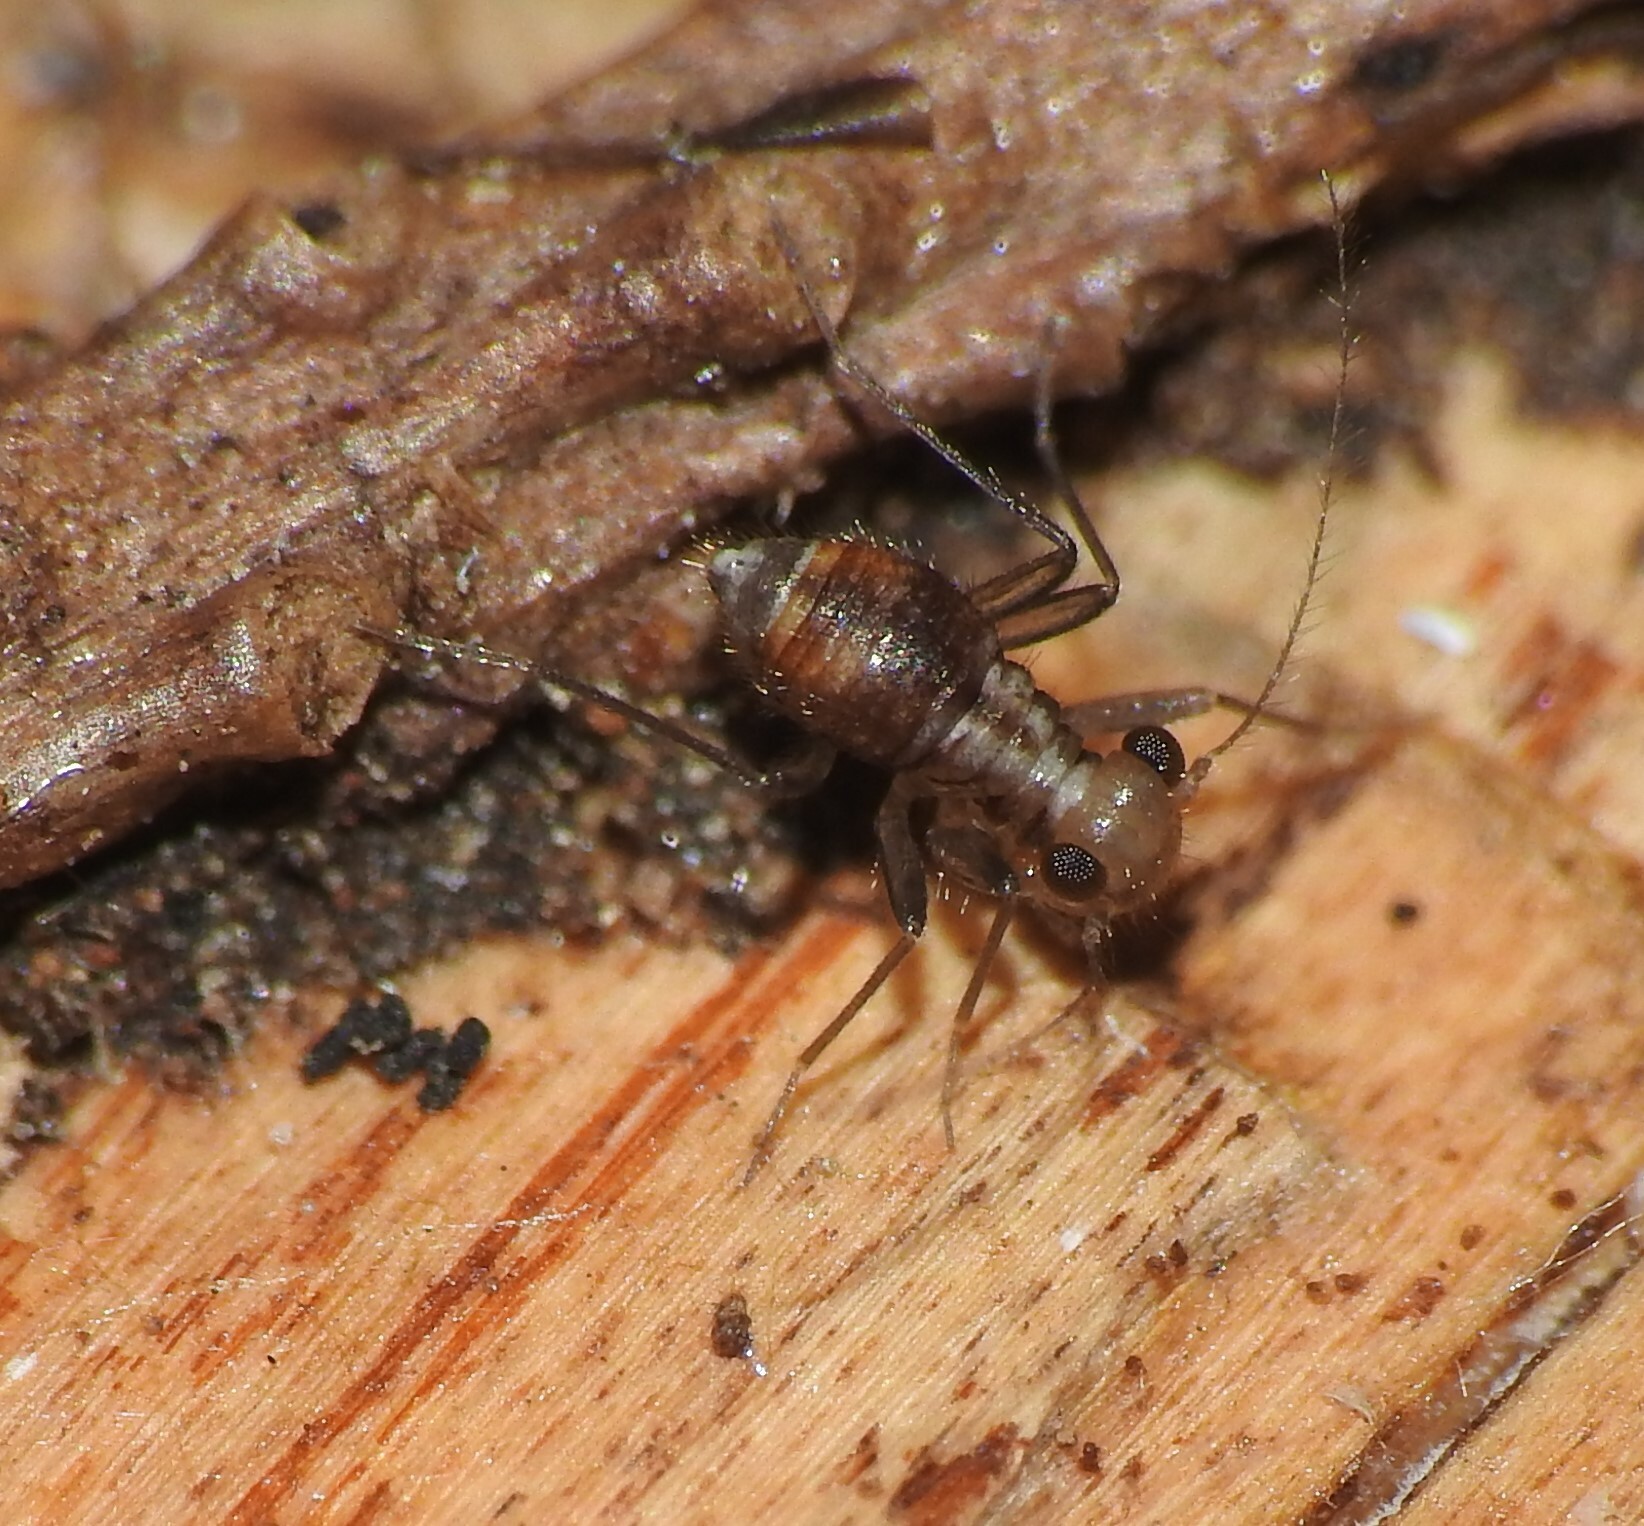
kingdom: Animalia
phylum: Arthropoda
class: Insecta
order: Psocodea
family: Epipsocidae
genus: Bertkauia
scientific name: Bertkauia lucifuga
